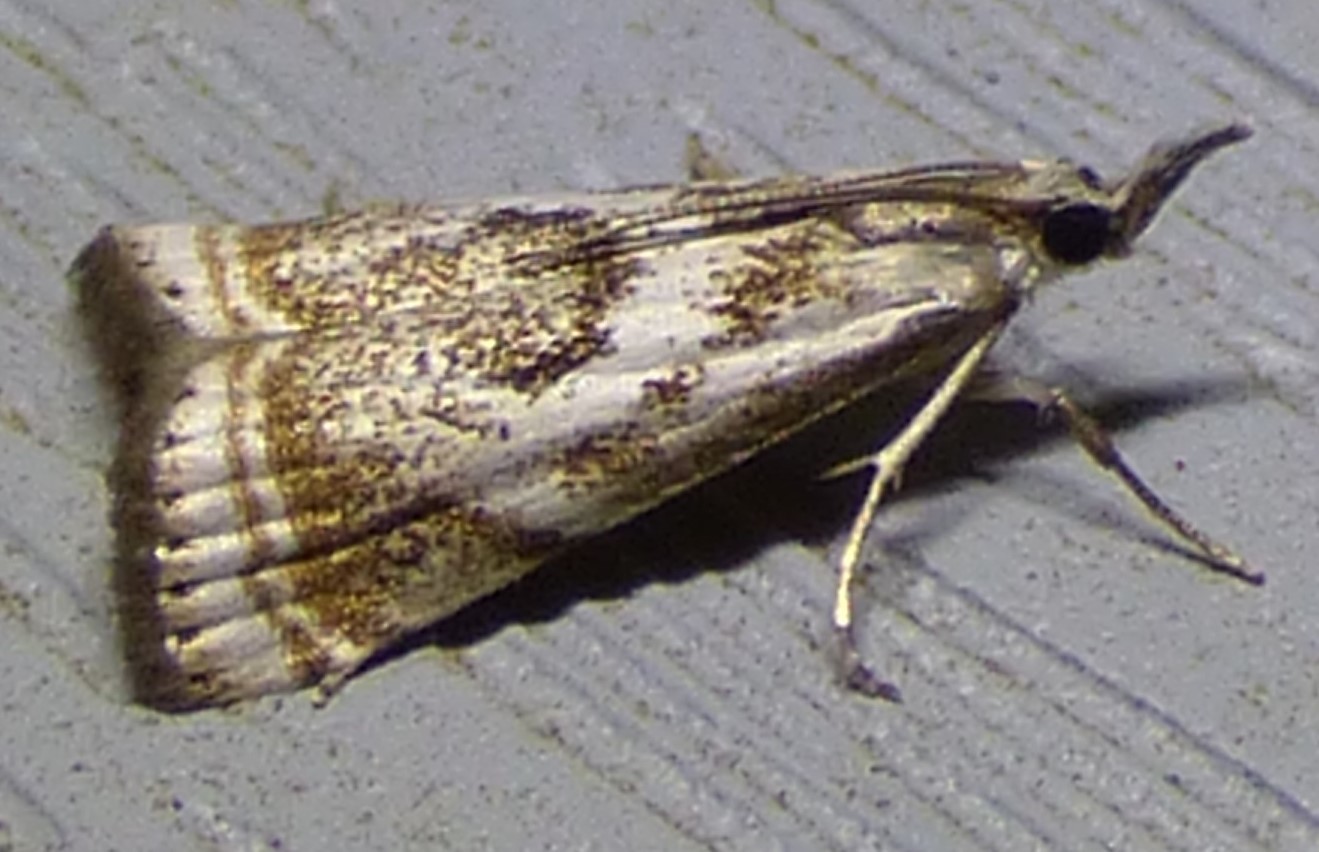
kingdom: Animalia
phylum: Arthropoda
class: Insecta
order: Lepidoptera
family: Crambidae
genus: Microcrambus
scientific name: Microcrambus elegans
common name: Elegant grass-veneer
